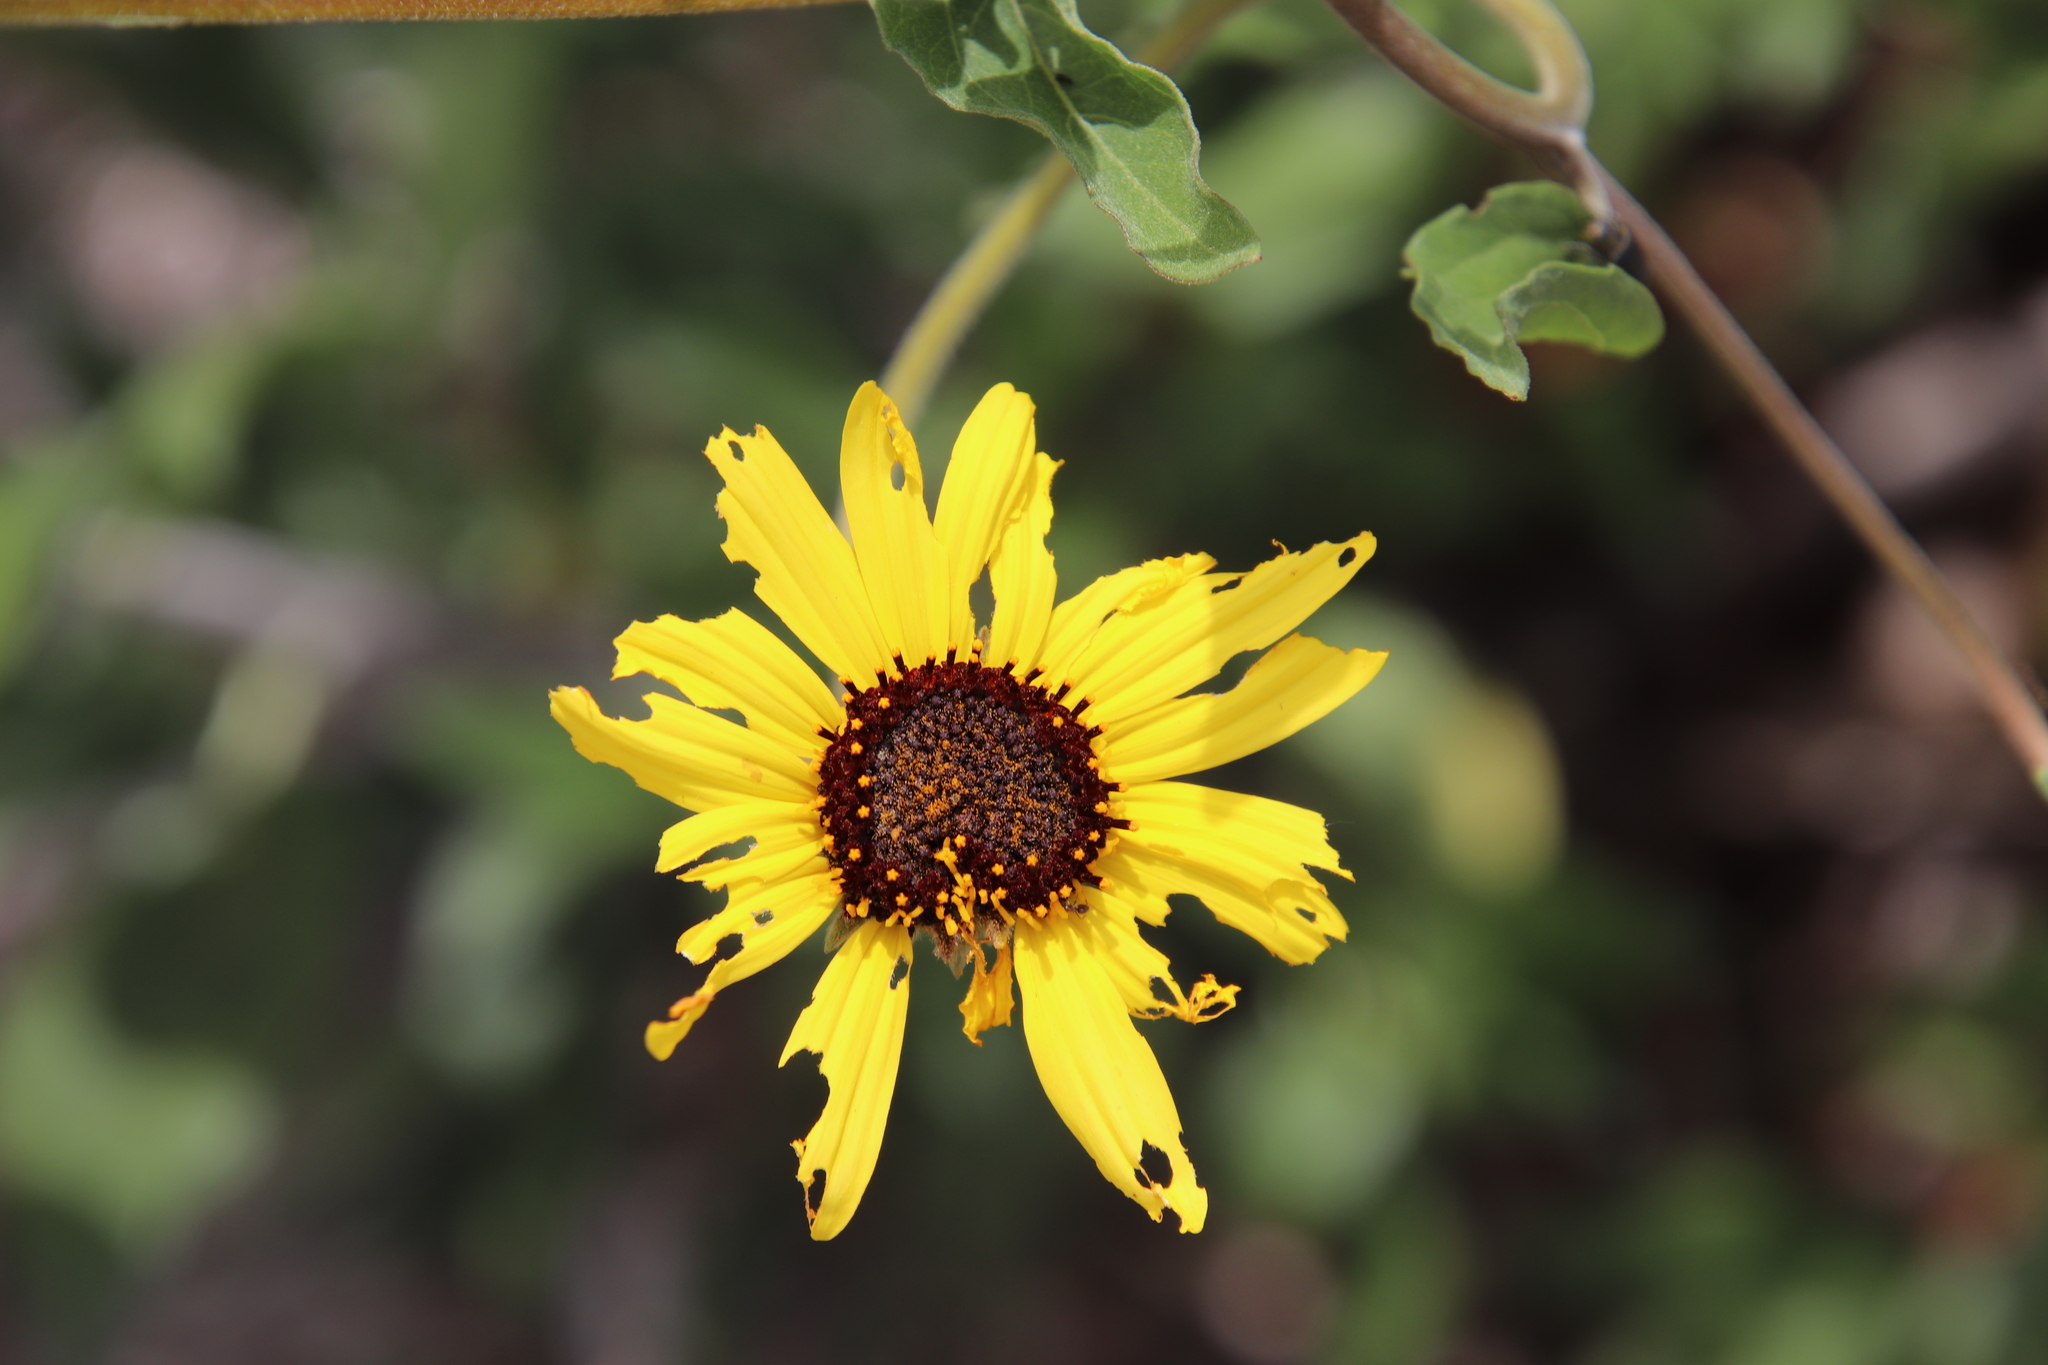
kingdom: Animalia
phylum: Arthropoda
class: Insecta
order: Coleoptera
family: Chrysomelidae
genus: Trirhabda
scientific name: Trirhabda geminata
